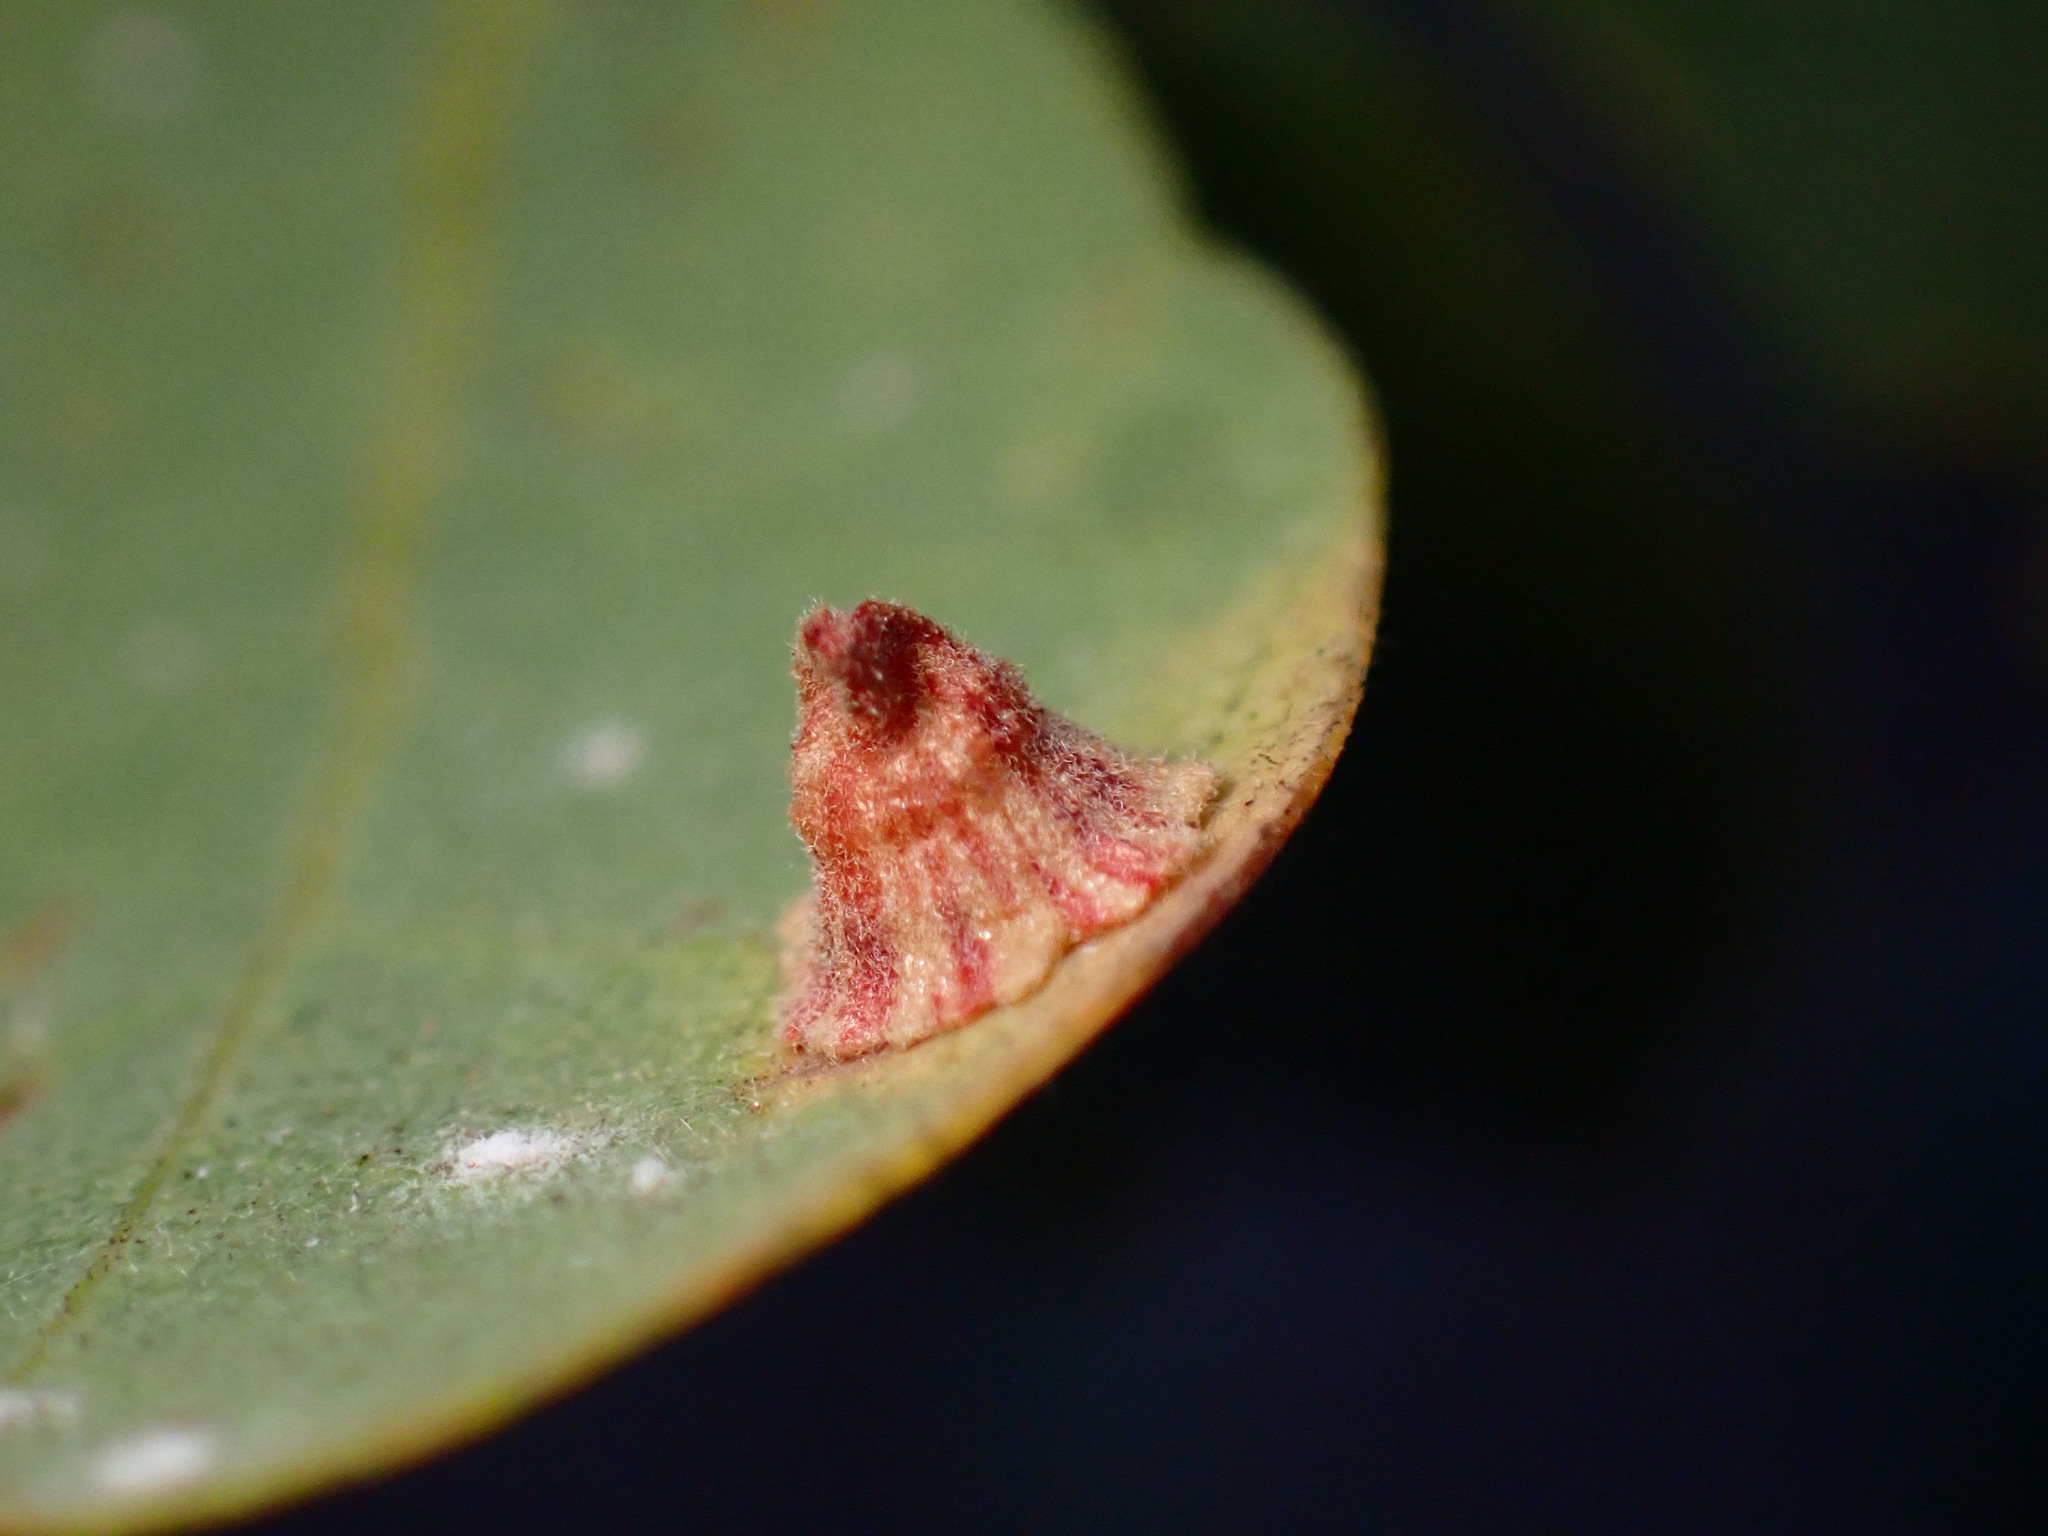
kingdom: Animalia
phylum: Arthropoda
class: Insecta
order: Hymenoptera
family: Cynipidae
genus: Andricus
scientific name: Andricus
